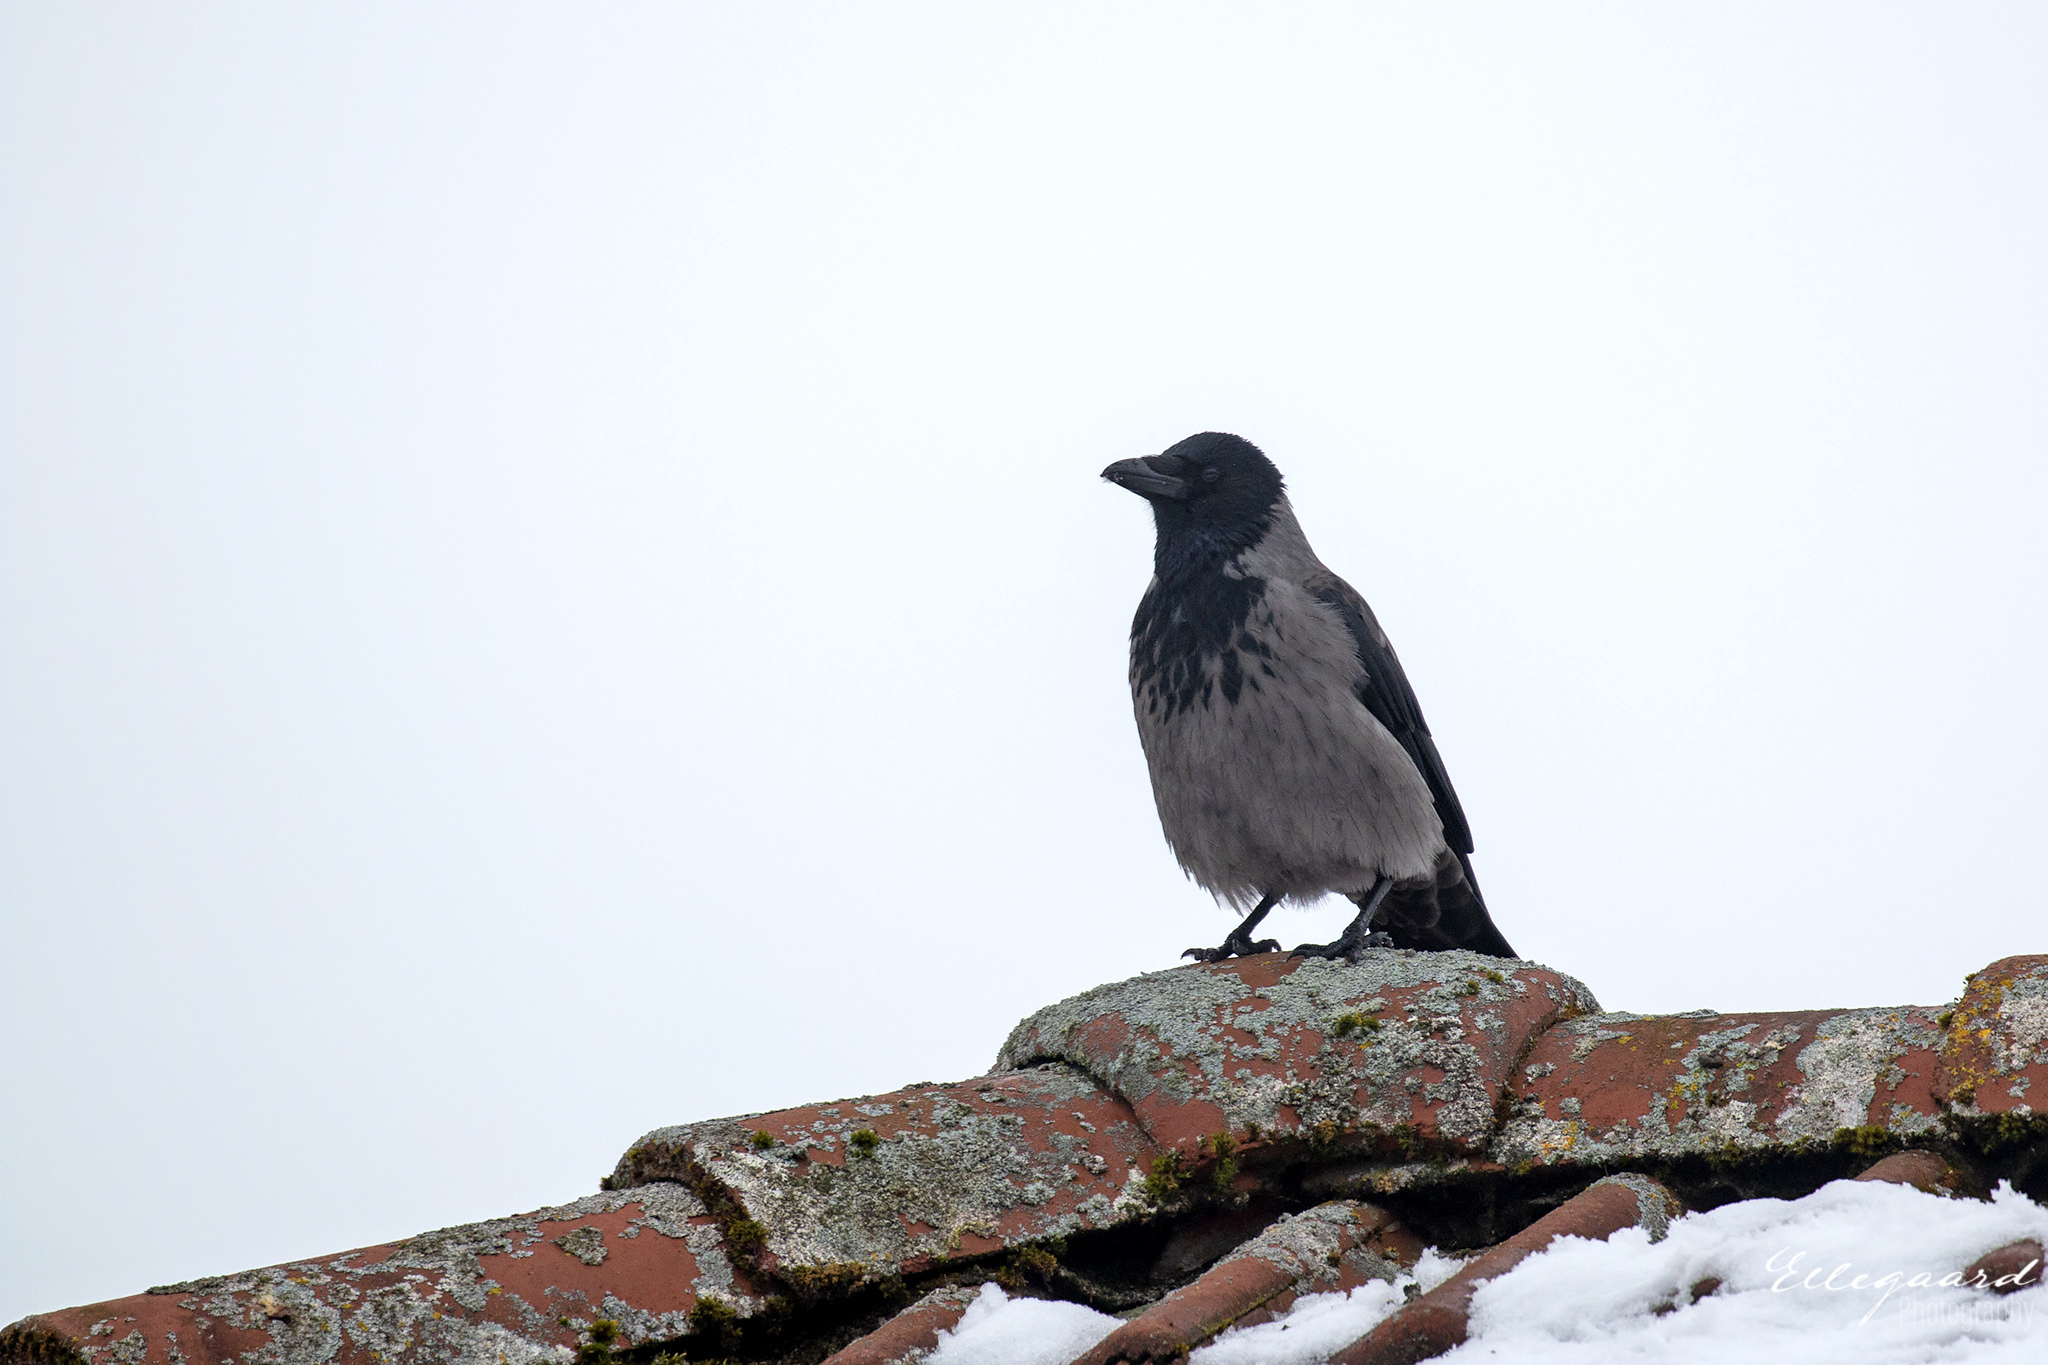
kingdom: Animalia
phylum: Chordata
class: Aves
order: Passeriformes
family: Corvidae
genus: Corvus
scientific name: Corvus cornix
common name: Hooded crow
